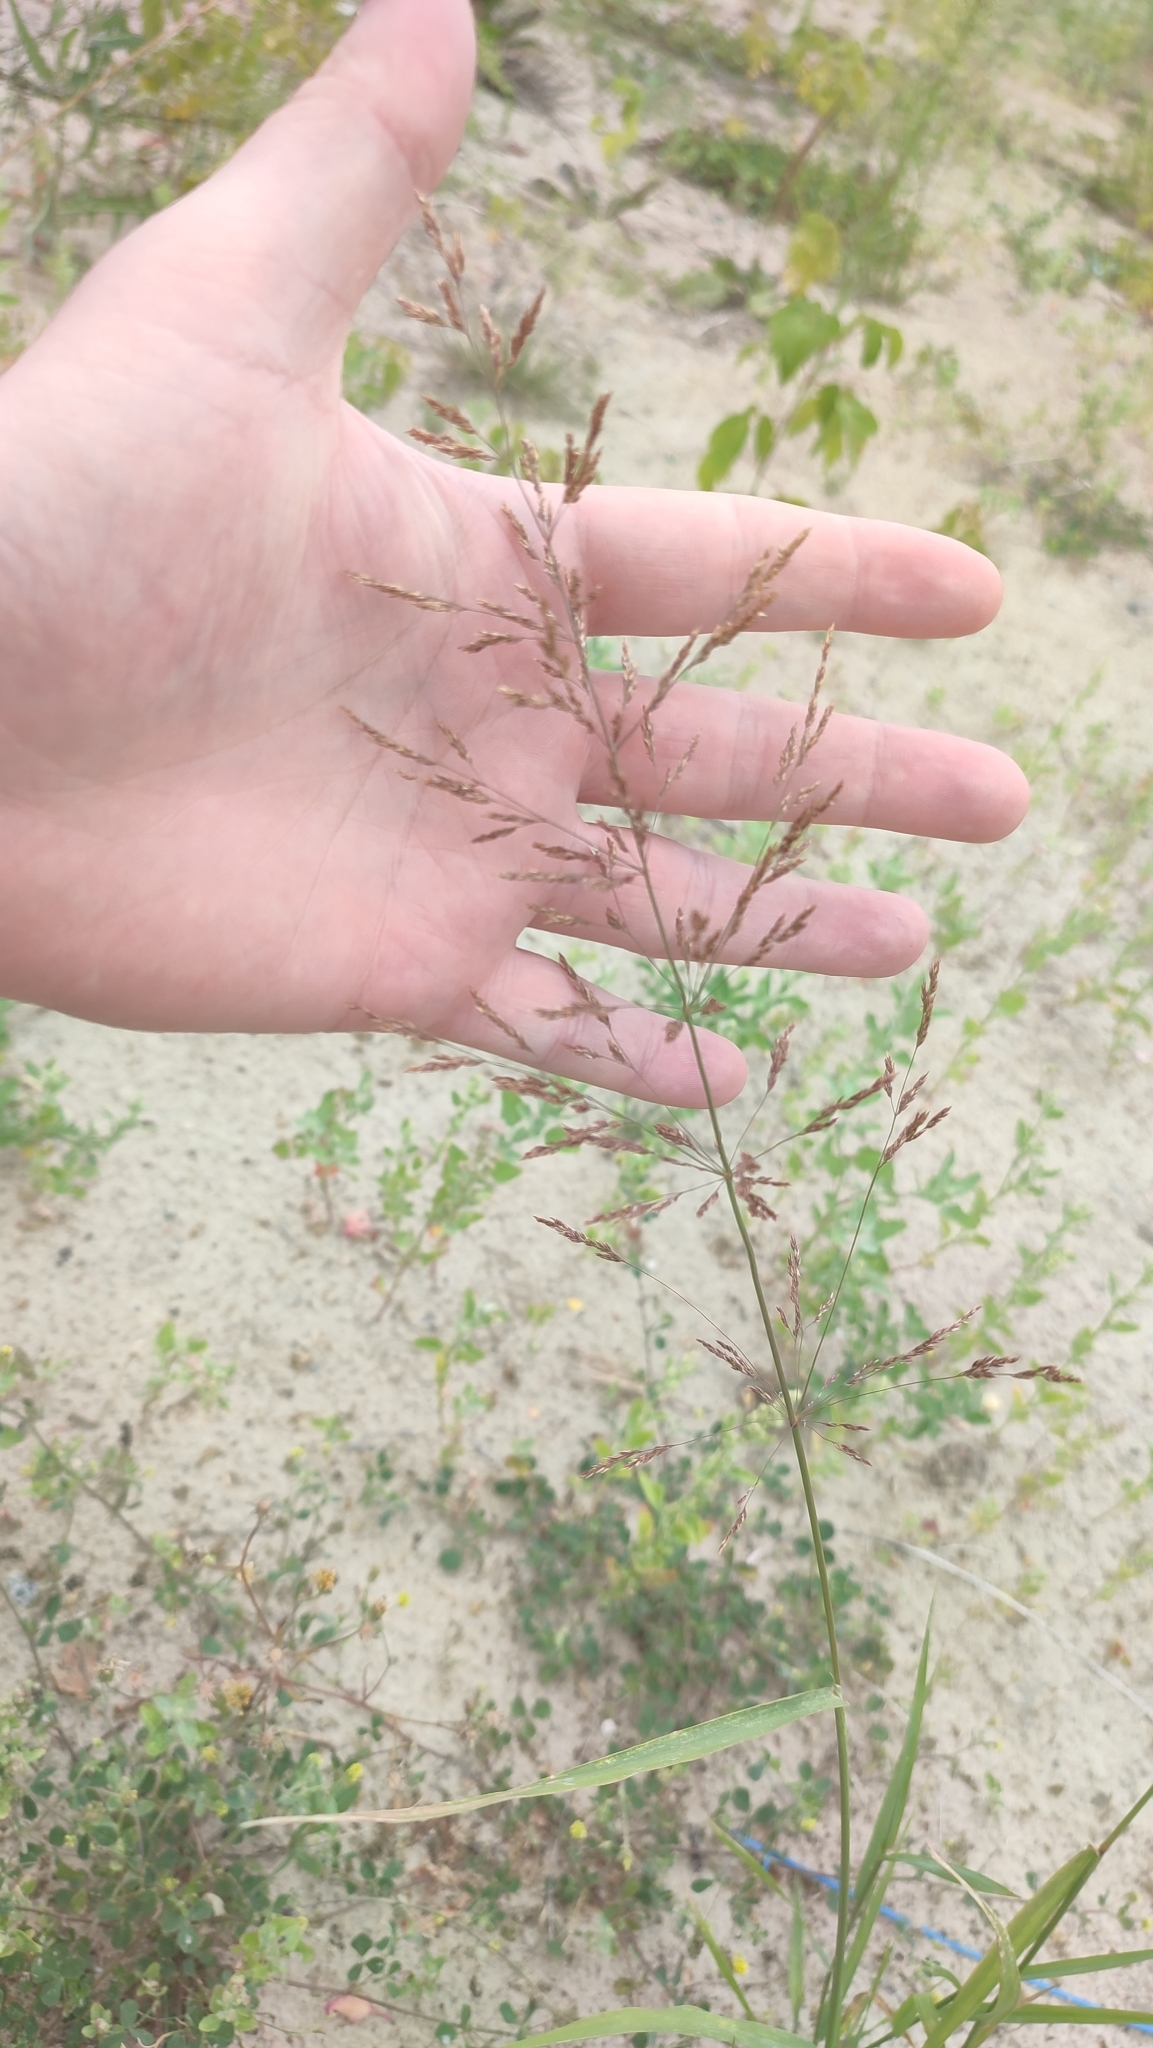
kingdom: Plantae
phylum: Tracheophyta
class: Liliopsida
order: Poales
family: Poaceae
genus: Agrostis
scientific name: Agrostis gigantea
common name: Black bent
